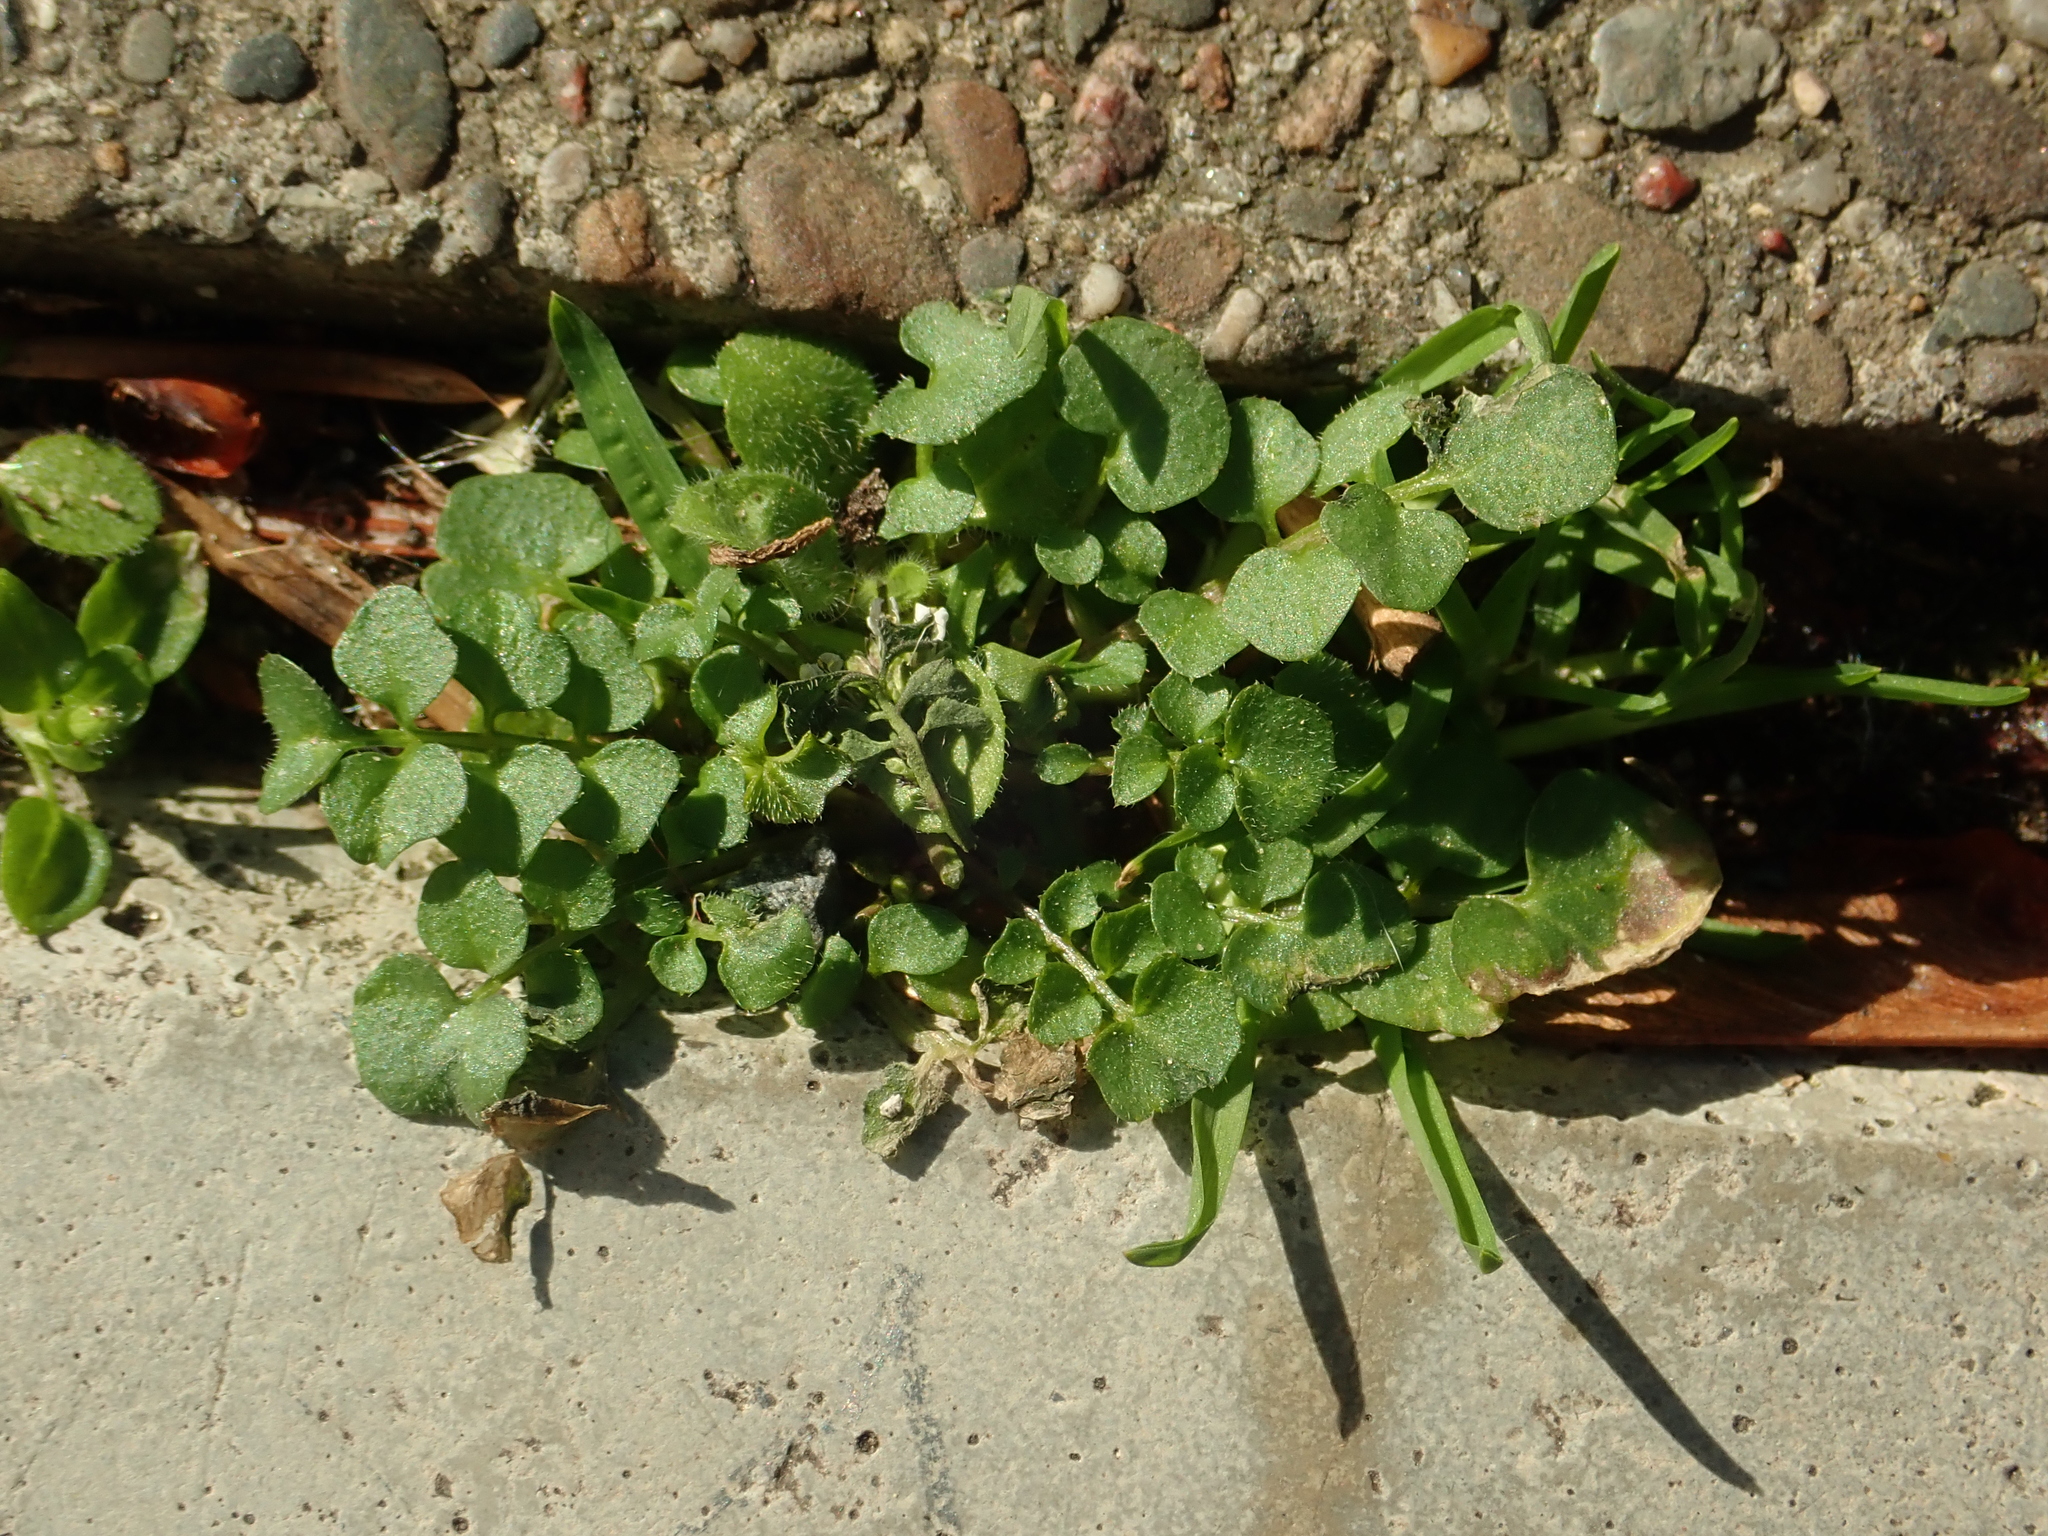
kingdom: Plantae
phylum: Tracheophyta
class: Magnoliopsida
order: Brassicales
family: Brassicaceae
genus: Cardamine
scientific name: Cardamine hirsuta
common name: Hairy bittercress
